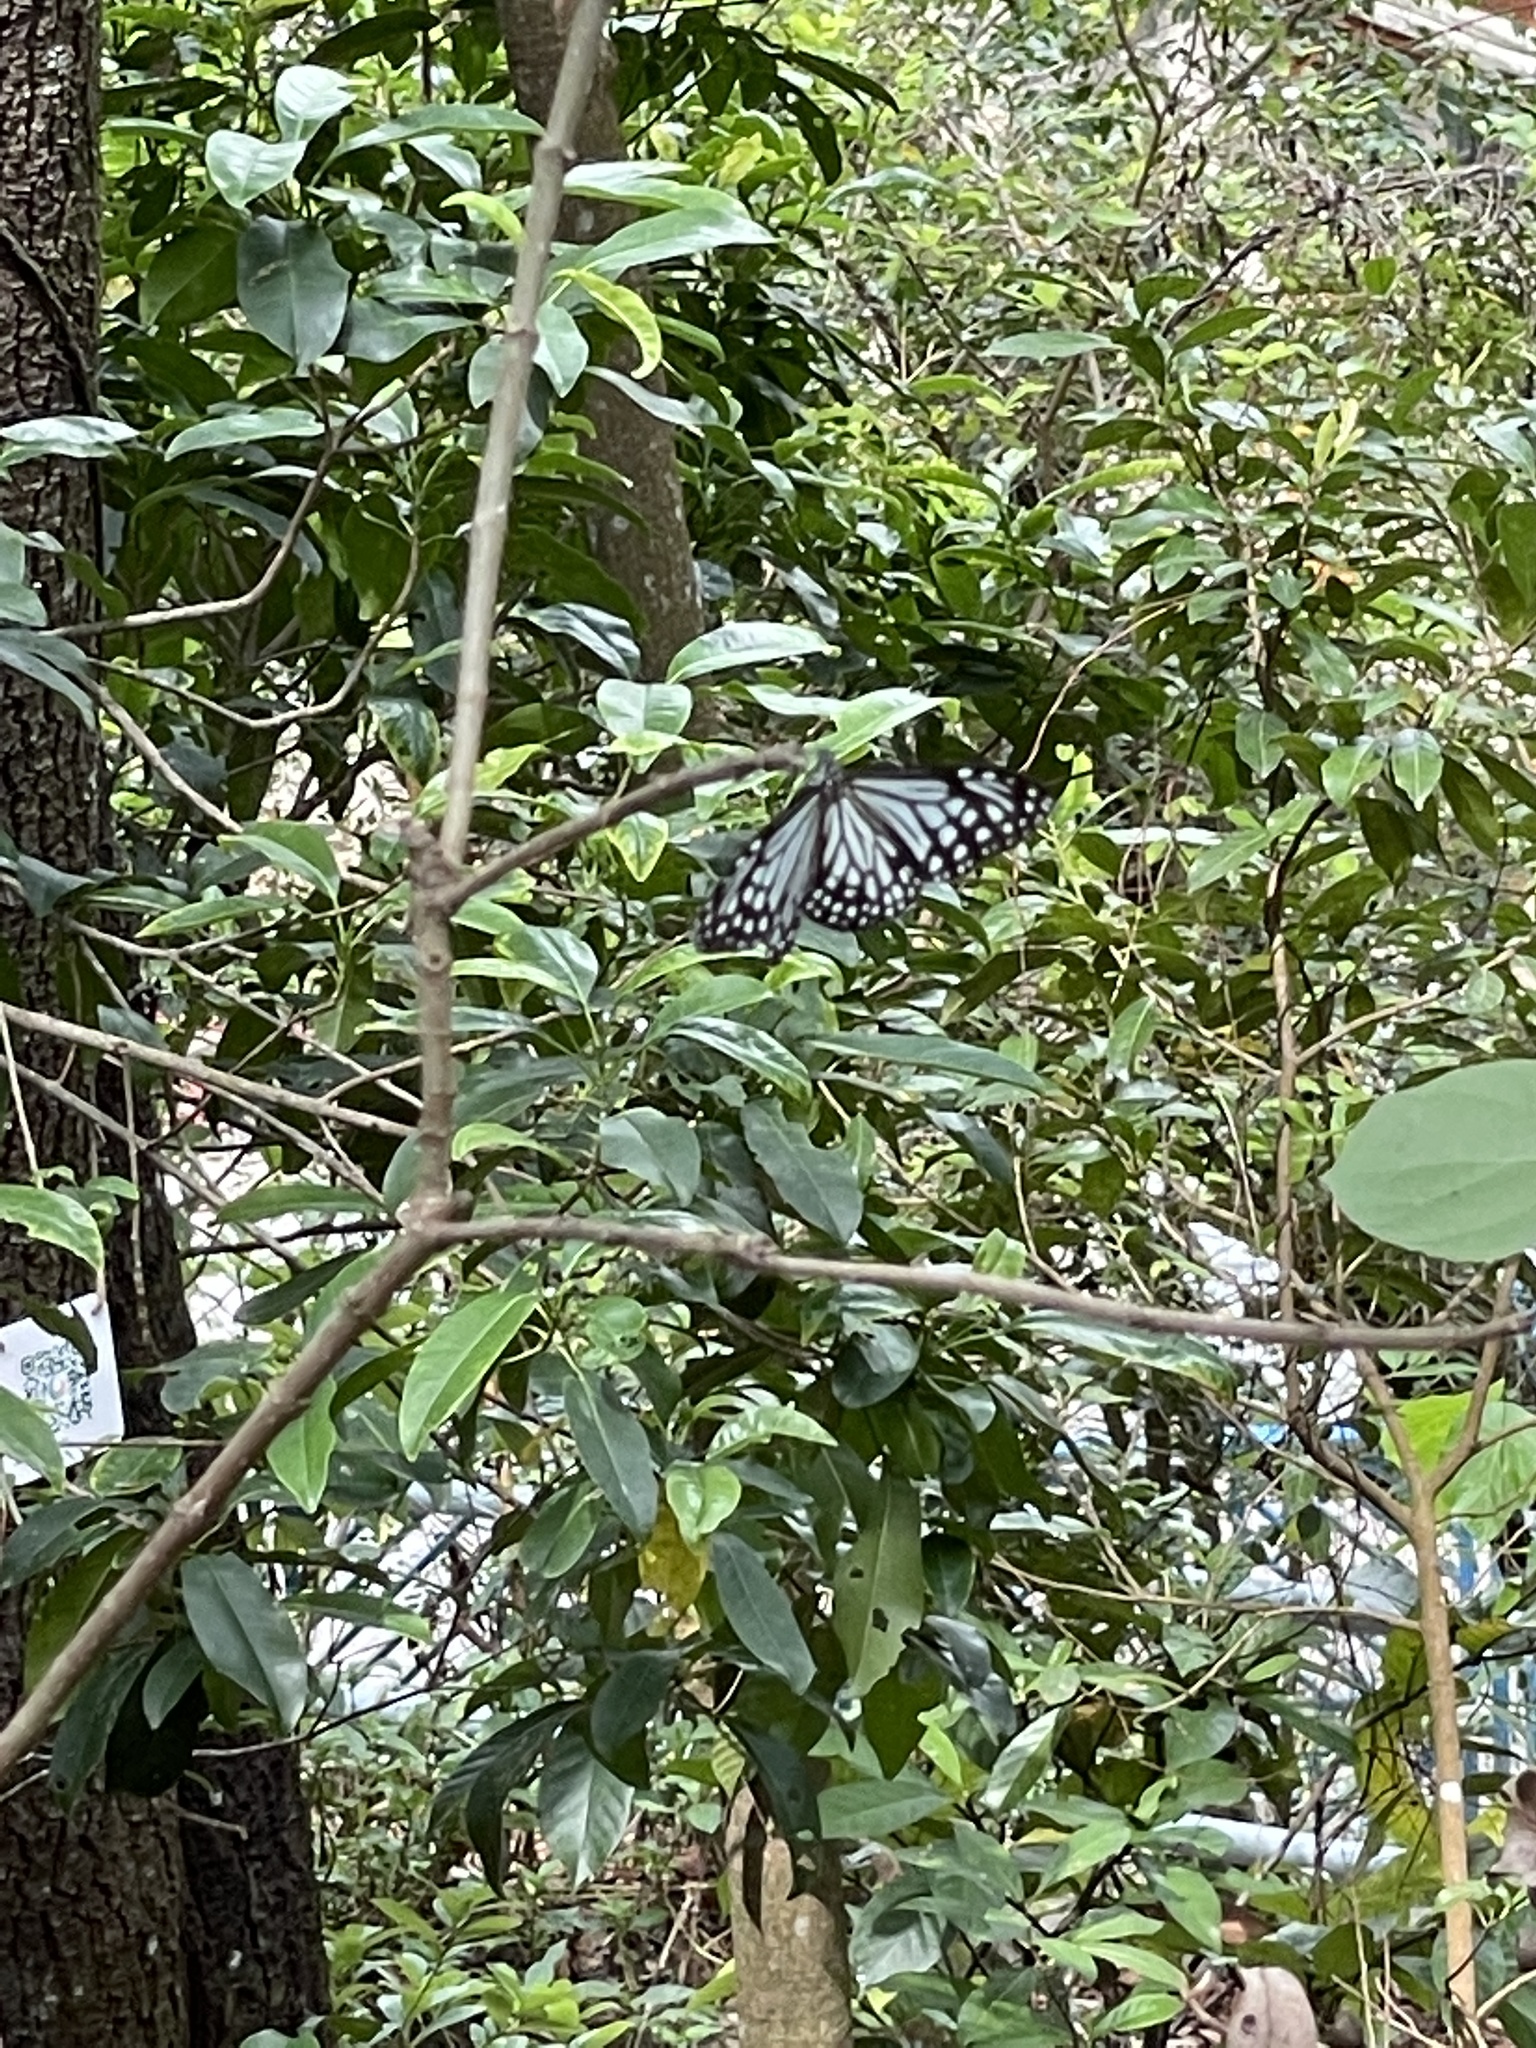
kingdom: Animalia
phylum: Arthropoda
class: Insecta
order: Lepidoptera
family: Nymphalidae
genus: Parantica
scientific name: Parantica aglea
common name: Glassy tiger
